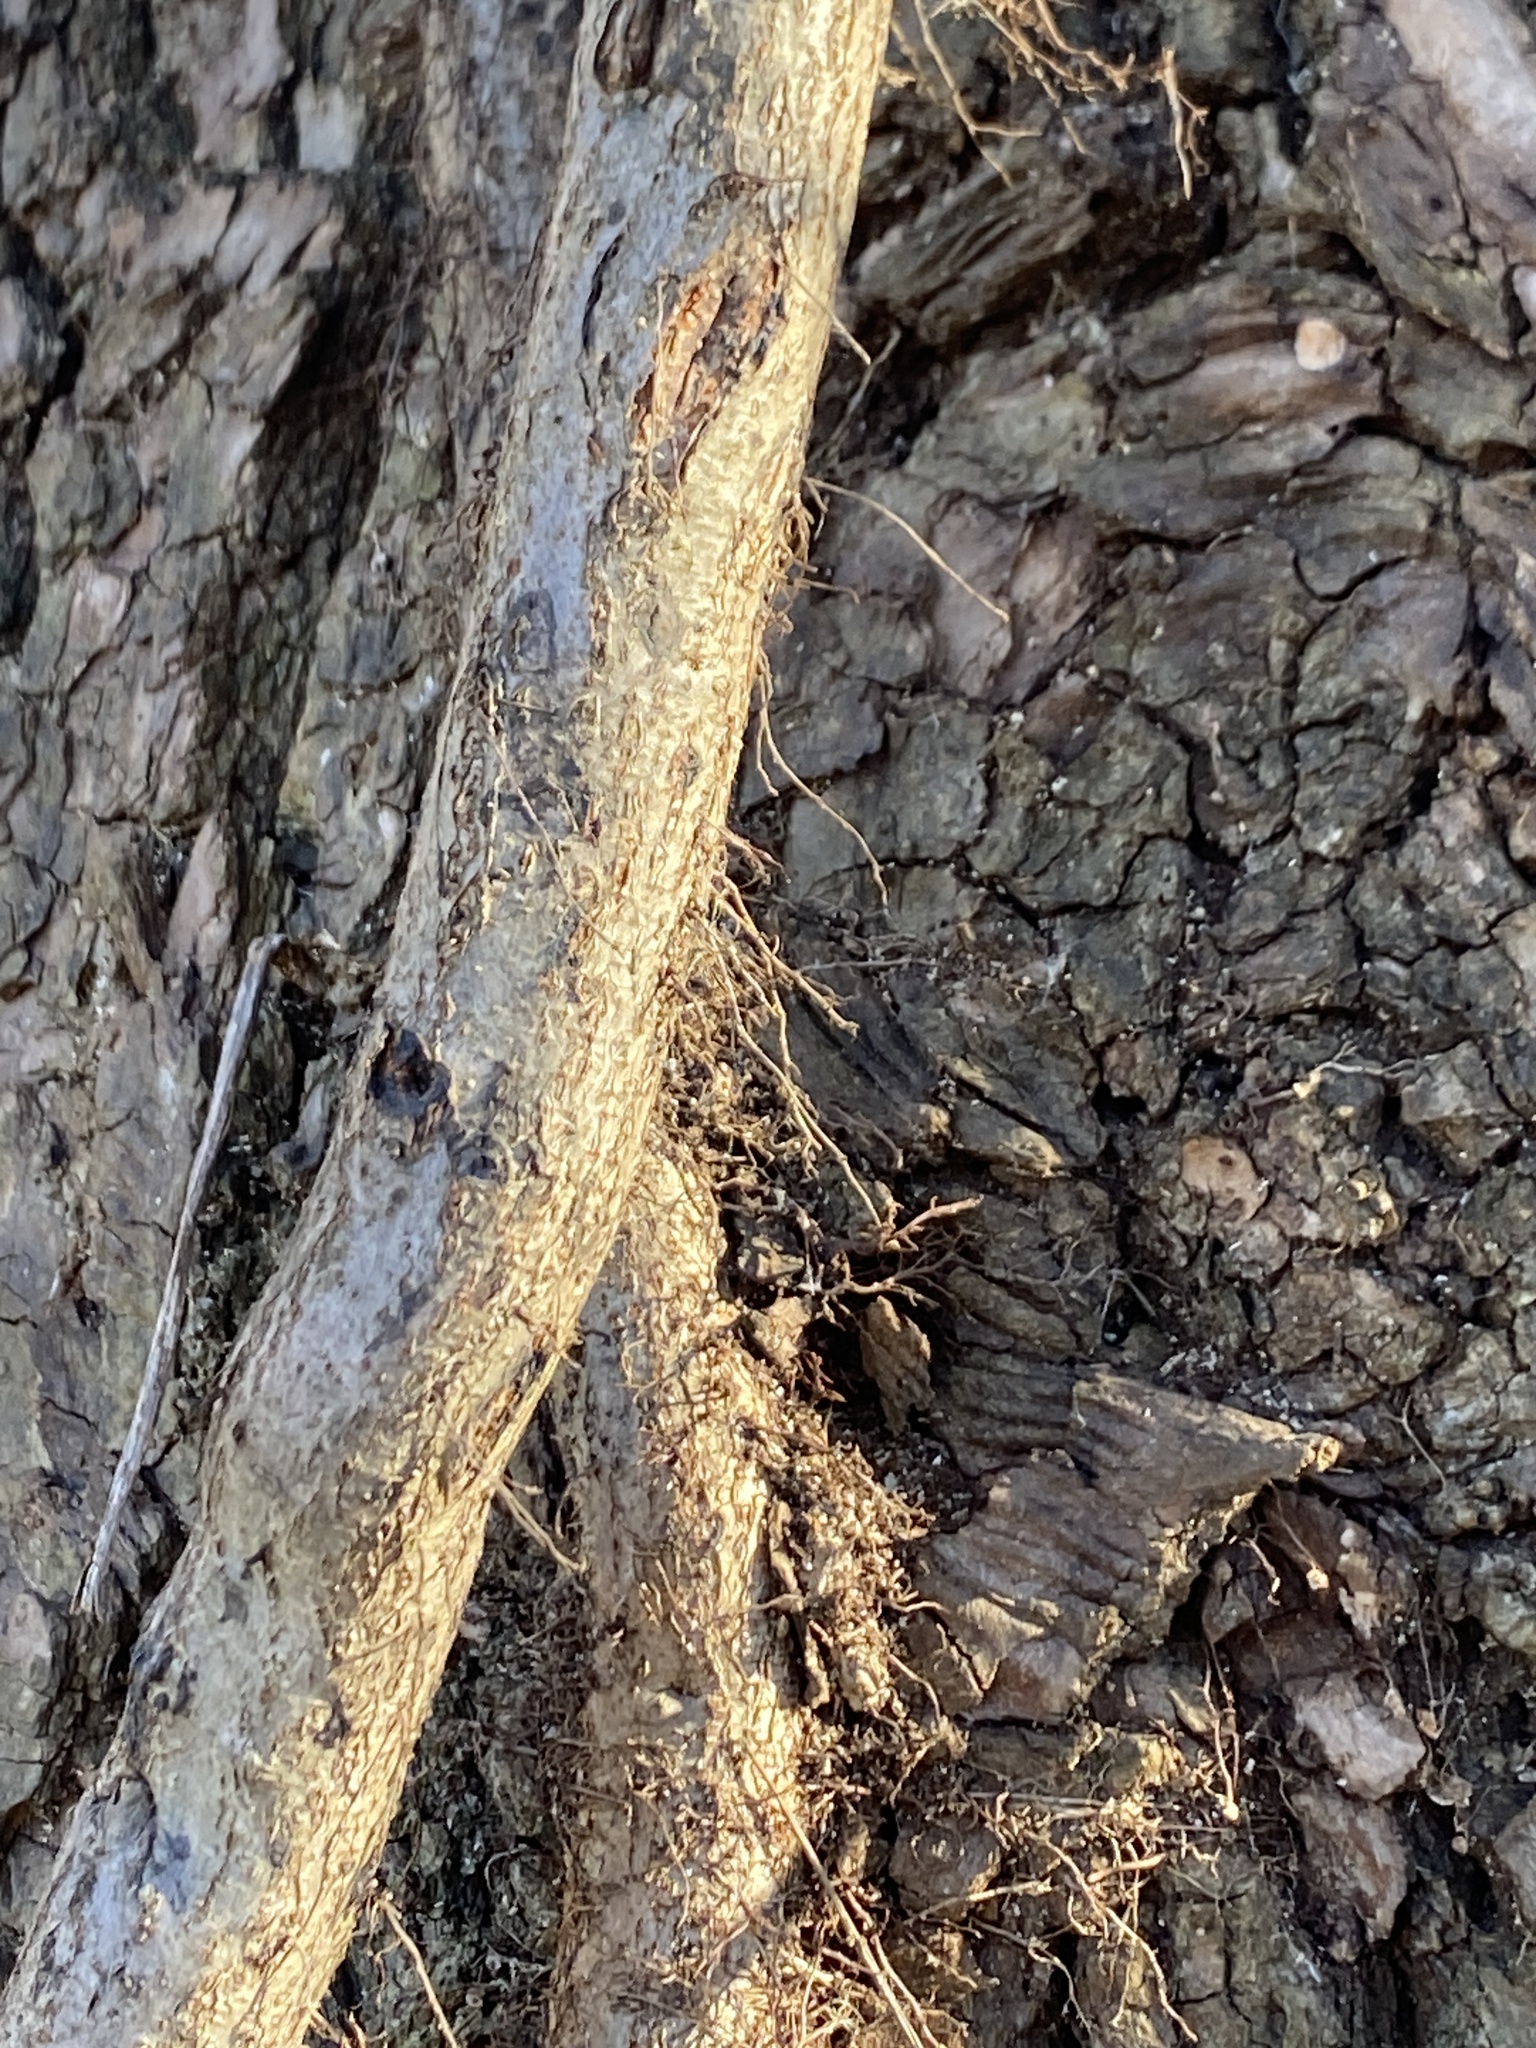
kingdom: Plantae
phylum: Tracheophyta
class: Magnoliopsida
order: Sapindales
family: Anacardiaceae
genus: Toxicodendron
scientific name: Toxicodendron radicans
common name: Poison ivy
